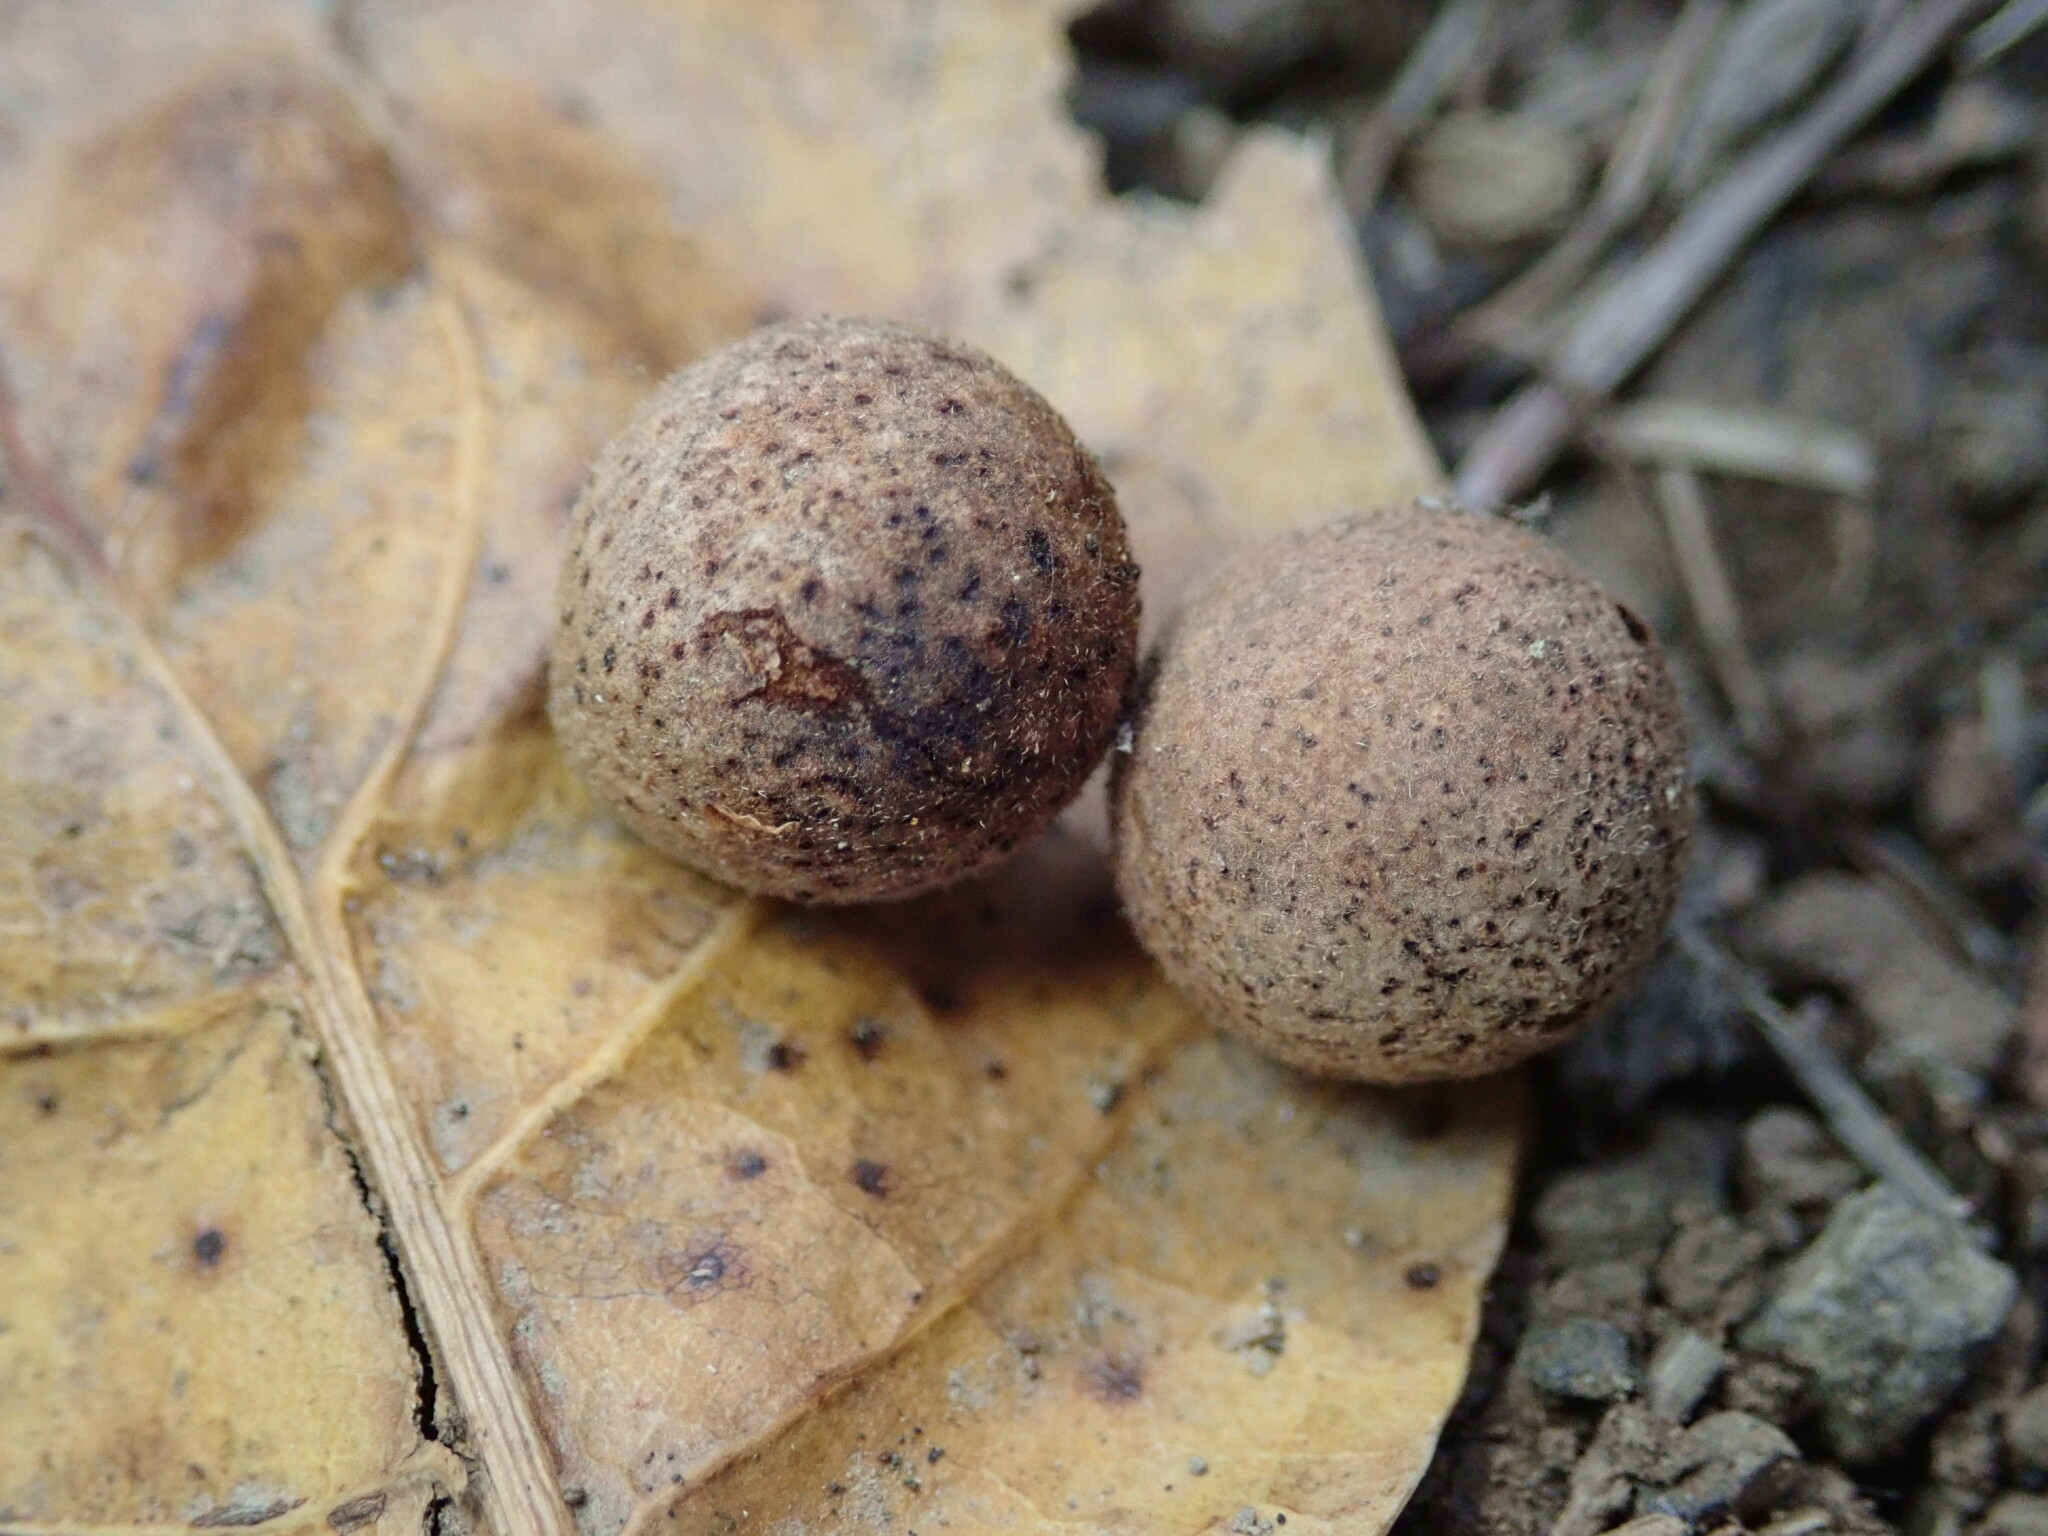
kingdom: Animalia
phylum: Arthropoda
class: Insecta
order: Hymenoptera
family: Cynipidae
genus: Callirhytis
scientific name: Callirhytis
